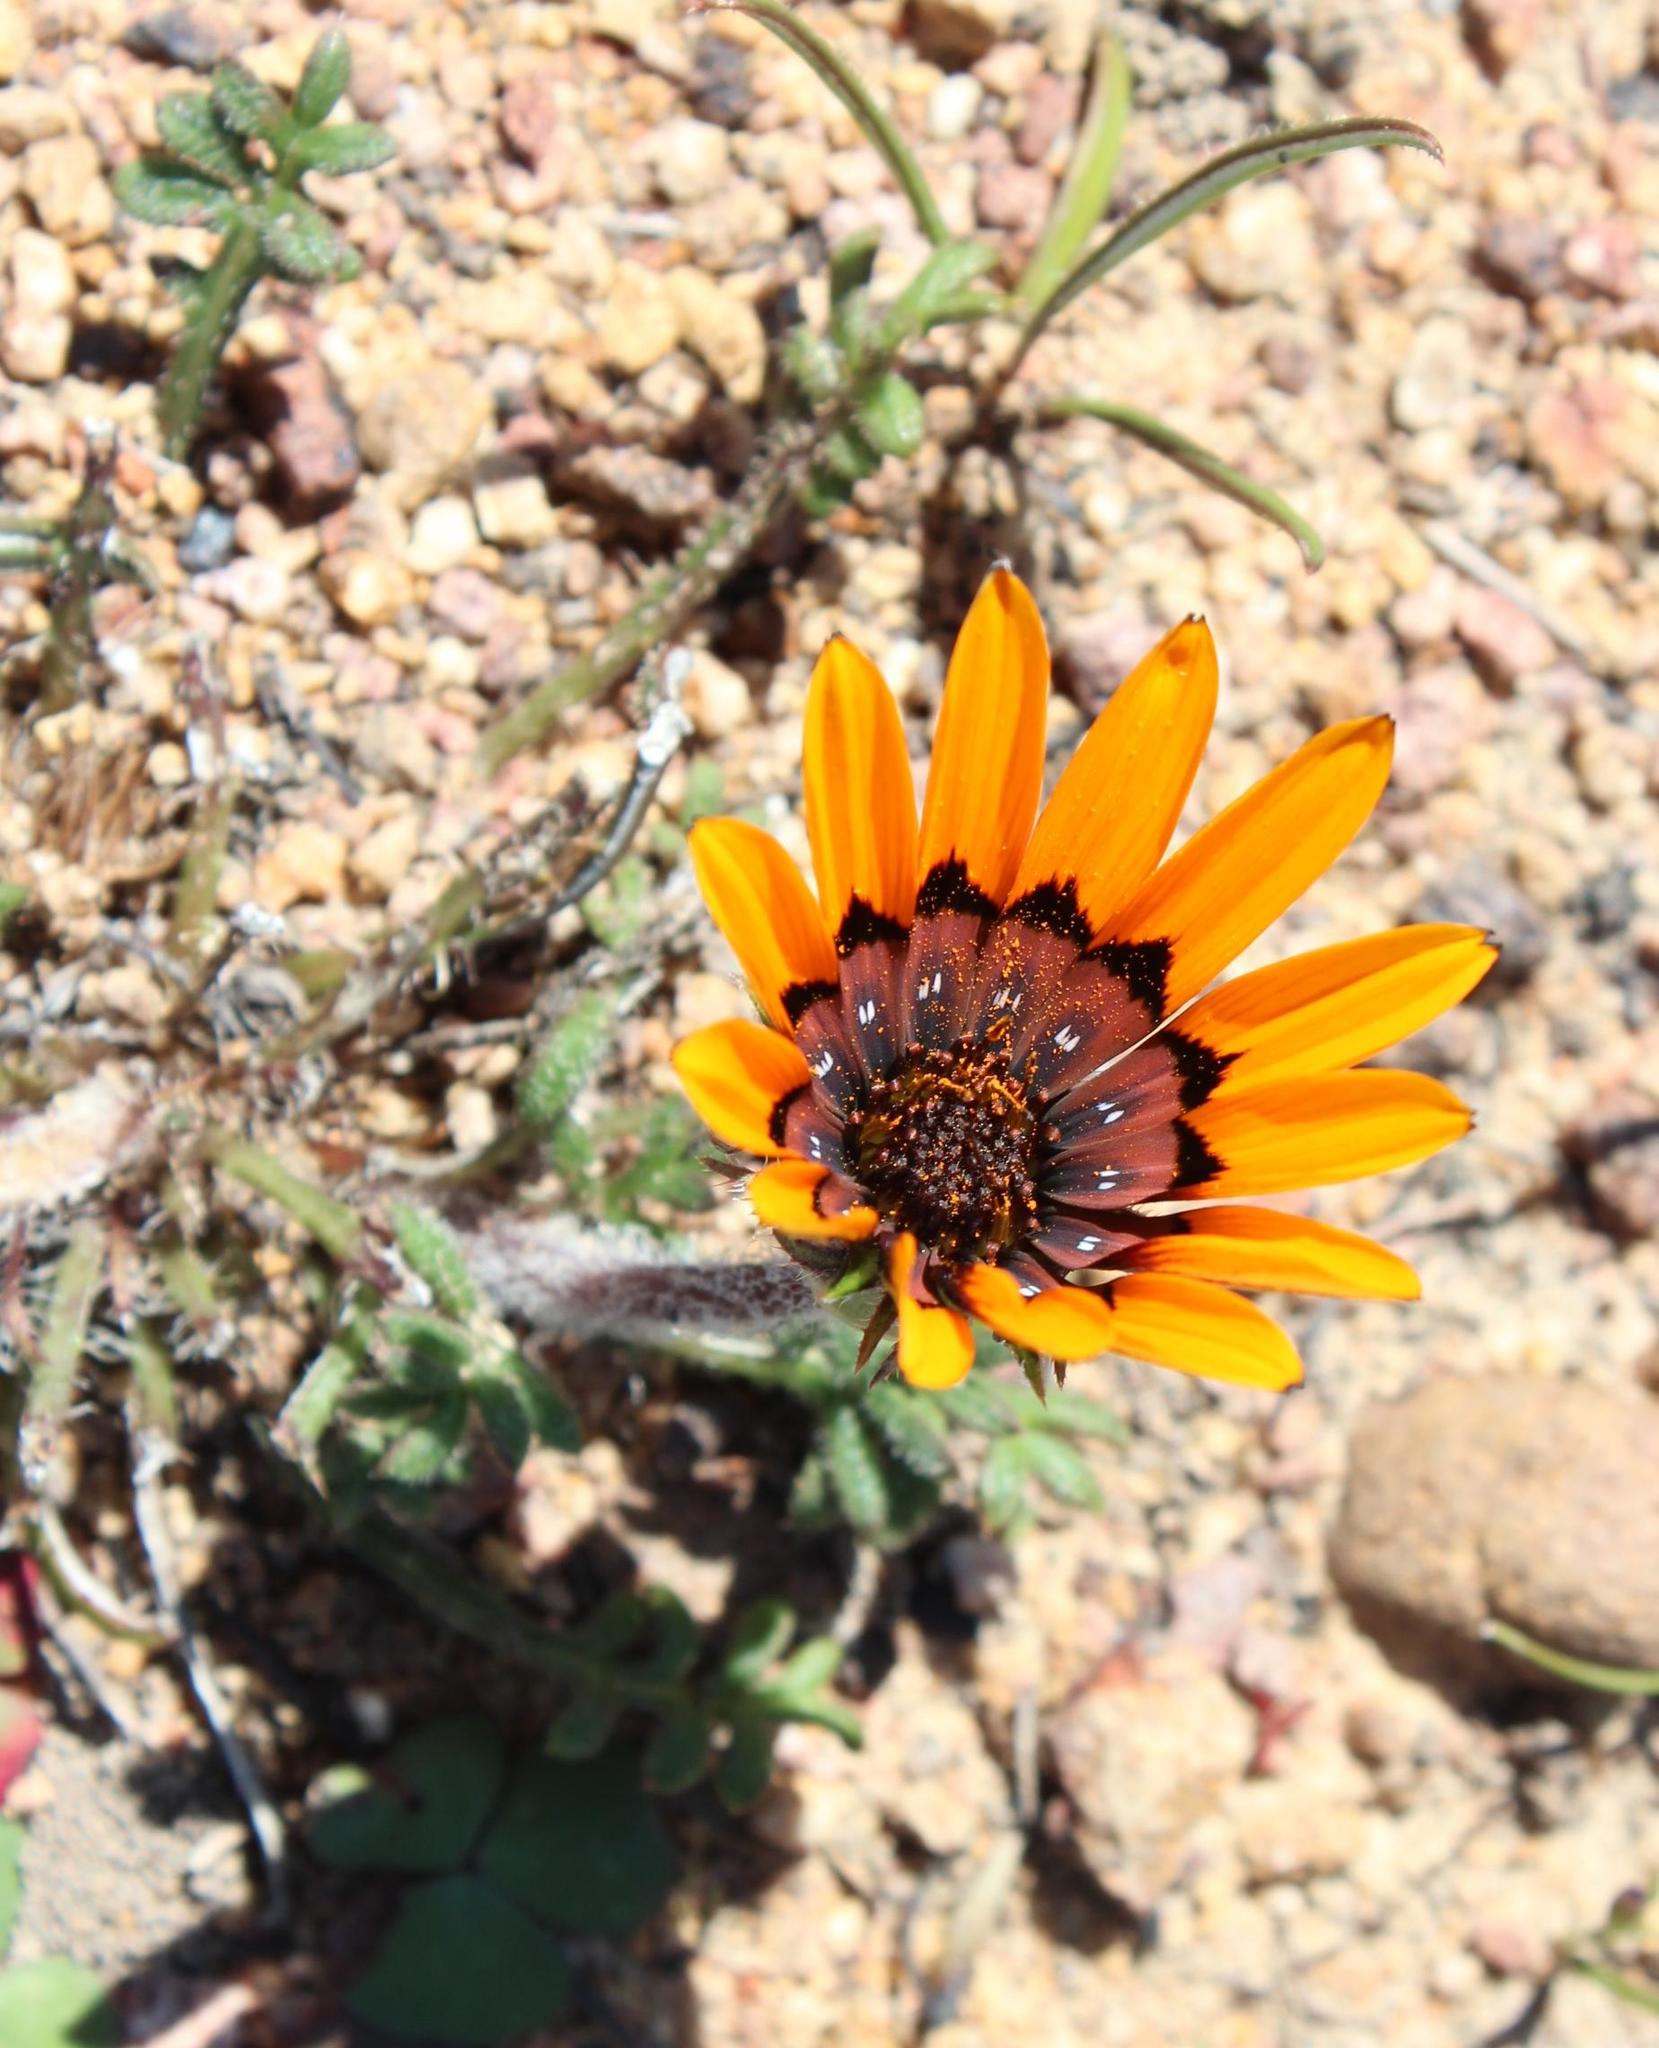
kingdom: Plantae
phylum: Tracheophyta
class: Magnoliopsida
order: Asterales
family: Asteraceae
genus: Gazania
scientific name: Gazania rigida
